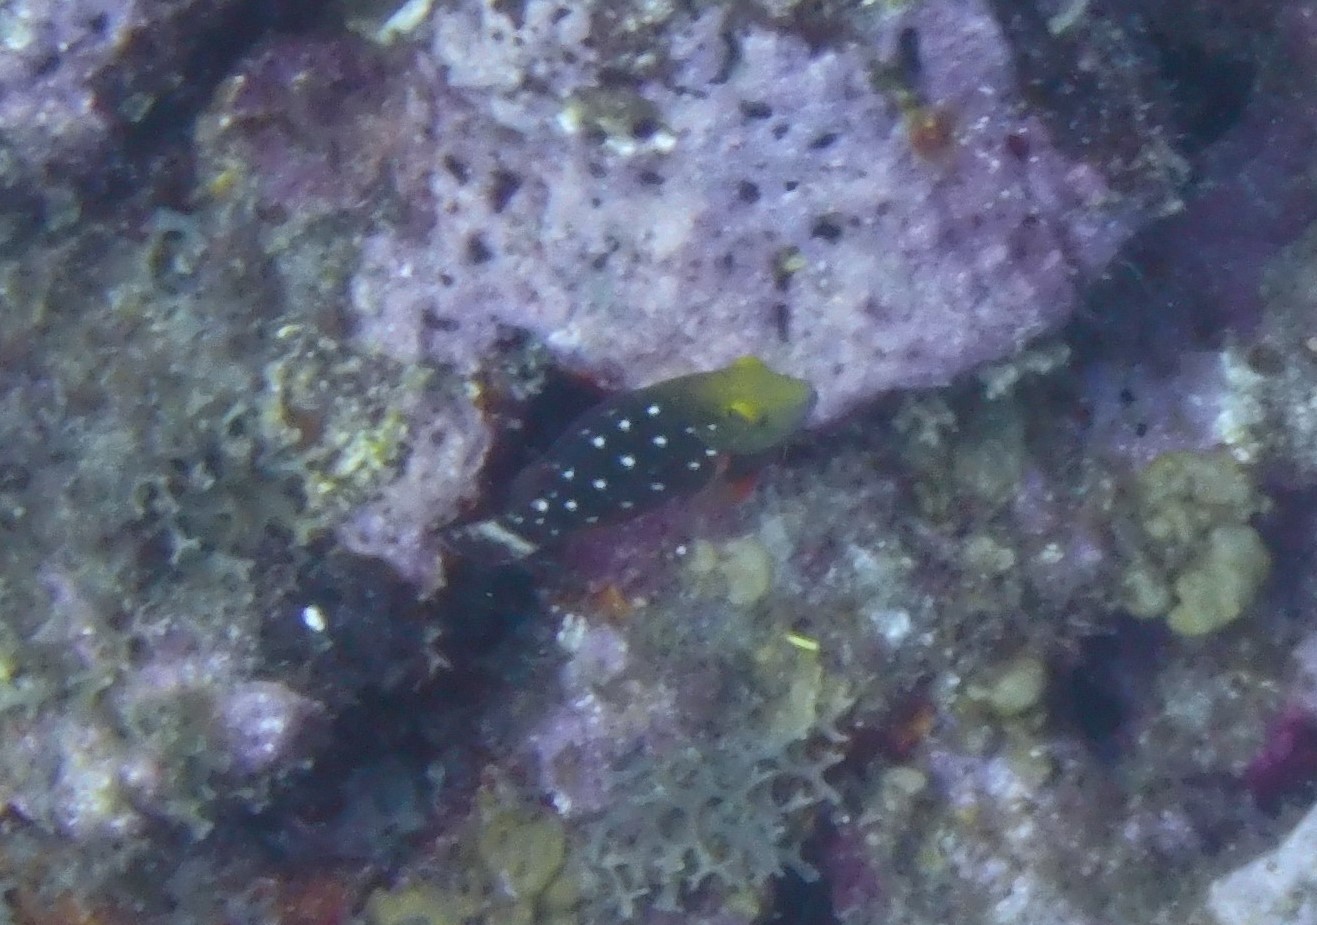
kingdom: Animalia
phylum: Chordata
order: Perciformes
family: Scaridae
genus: Sparisoma
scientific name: Sparisoma viride
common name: Stoplight parrotfish
